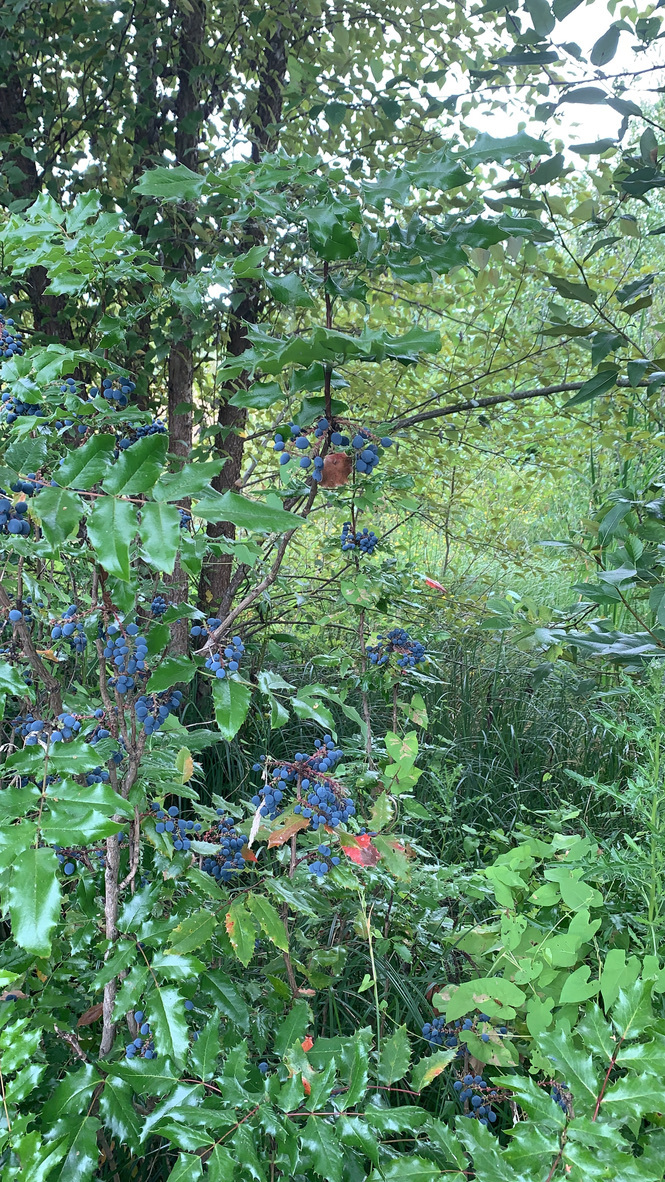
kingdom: Plantae
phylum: Tracheophyta
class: Magnoliopsida
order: Ranunculales
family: Berberidaceae
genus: Mahonia
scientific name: Mahonia aquifolium
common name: Oregon-grape
